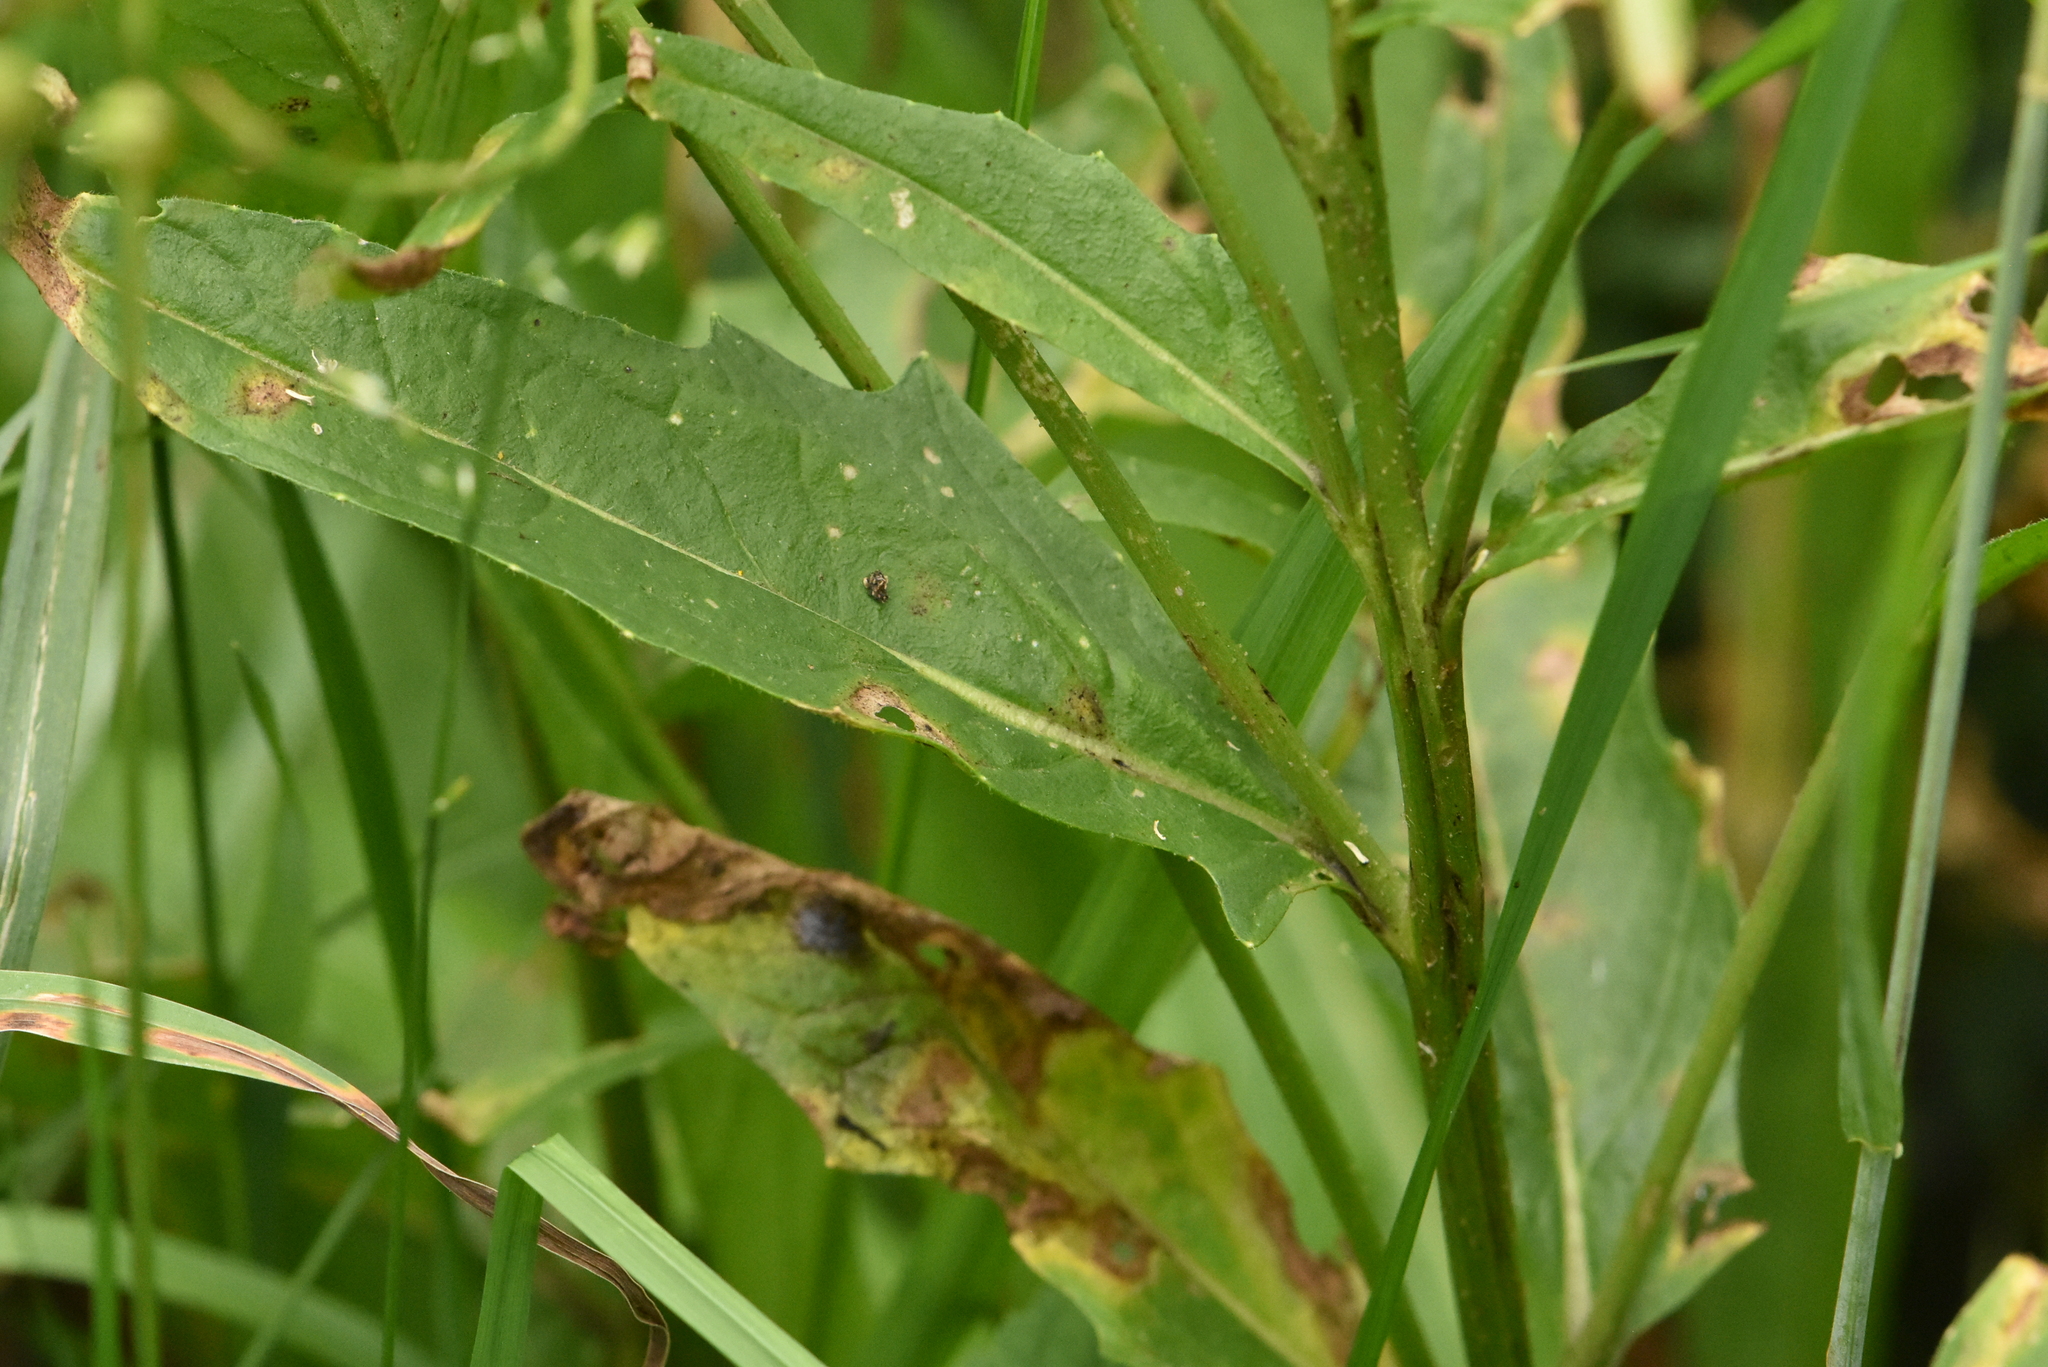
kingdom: Plantae
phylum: Tracheophyta
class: Magnoliopsida
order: Brassicales
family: Brassicaceae
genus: Bunias
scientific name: Bunias orientalis
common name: Warty-cabbage
